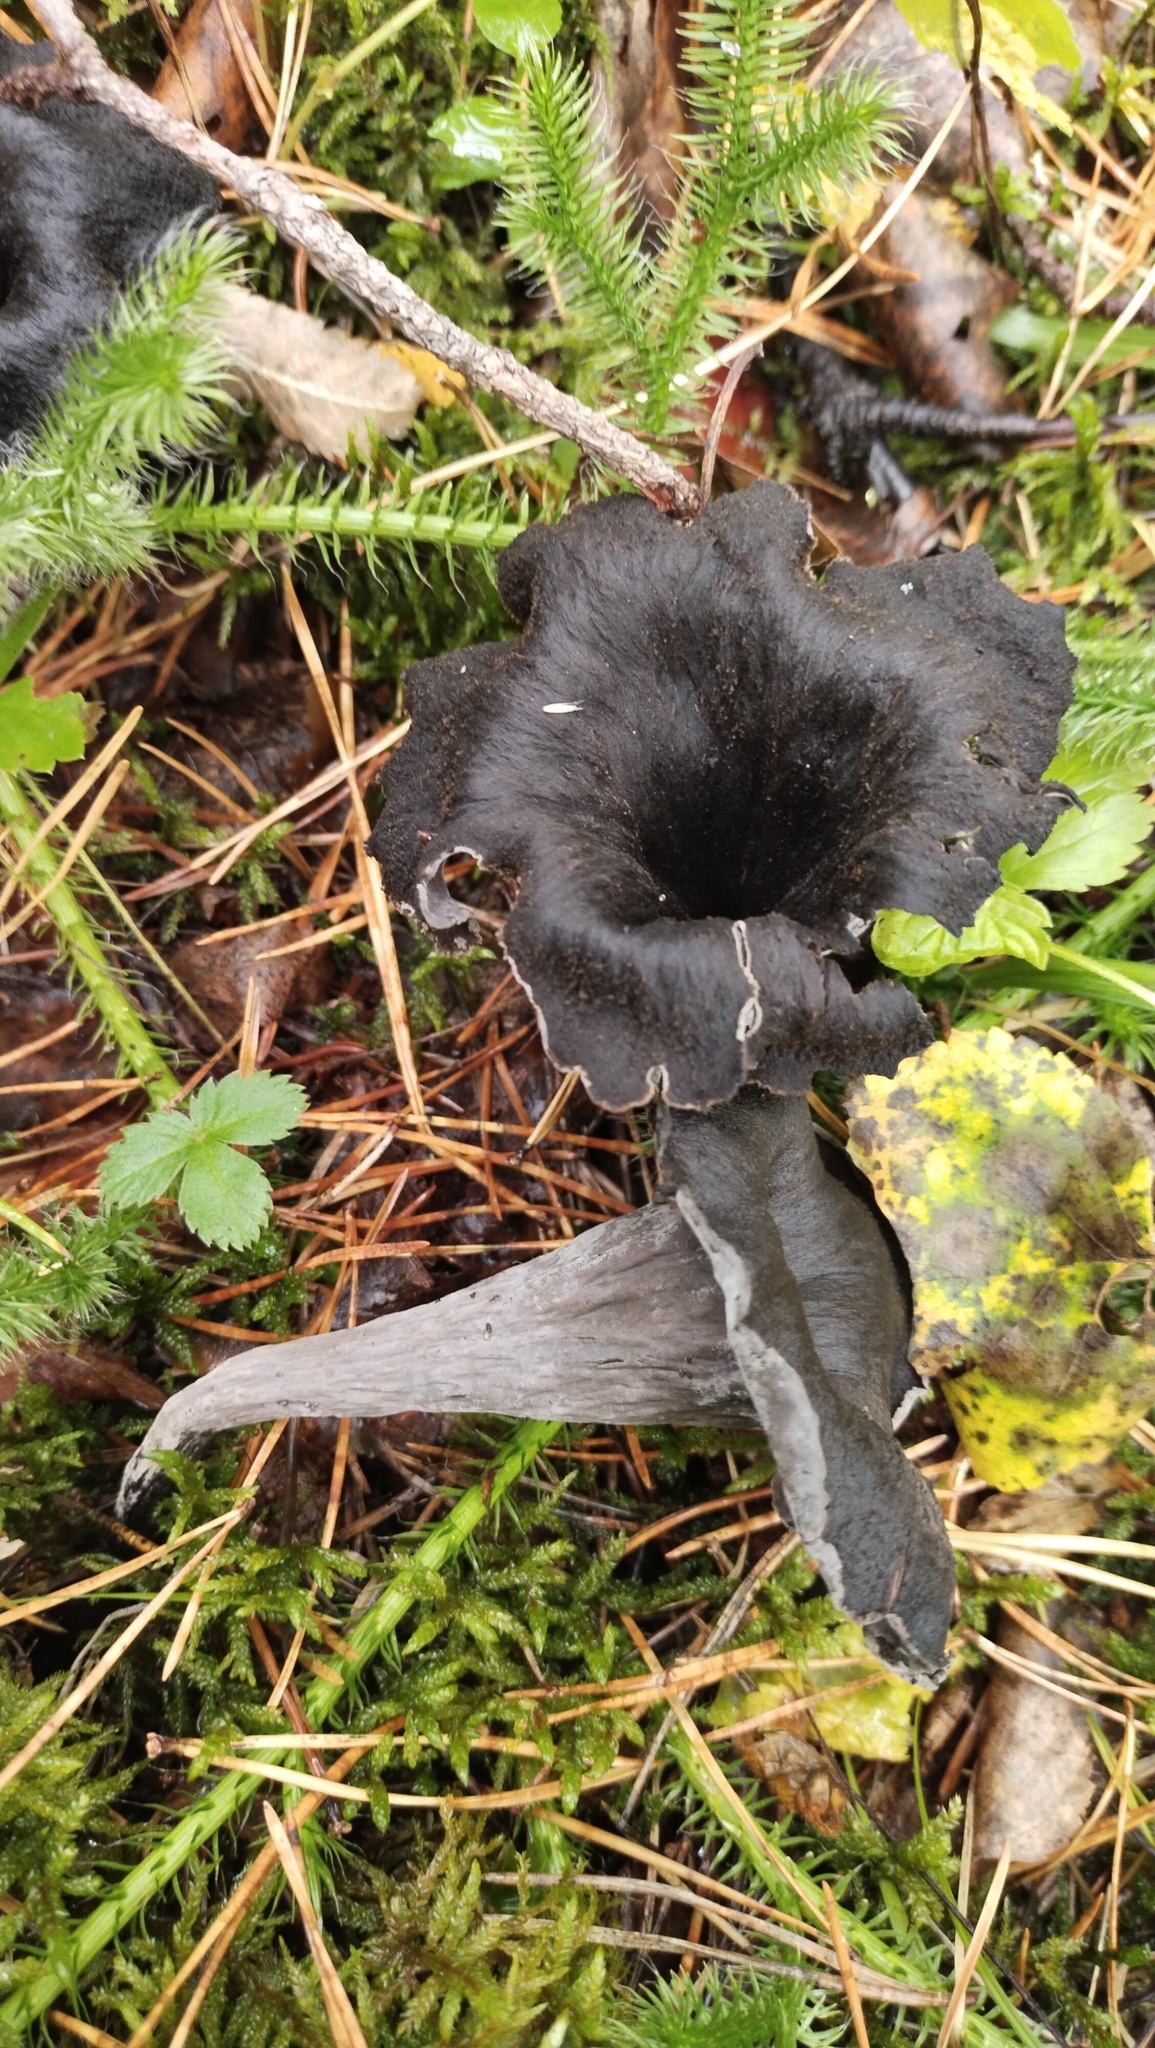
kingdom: Fungi
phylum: Basidiomycota
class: Agaricomycetes
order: Cantharellales
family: Hydnaceae
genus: Craterellus
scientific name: Craterellus cornucopioides
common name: Horn of plenty
